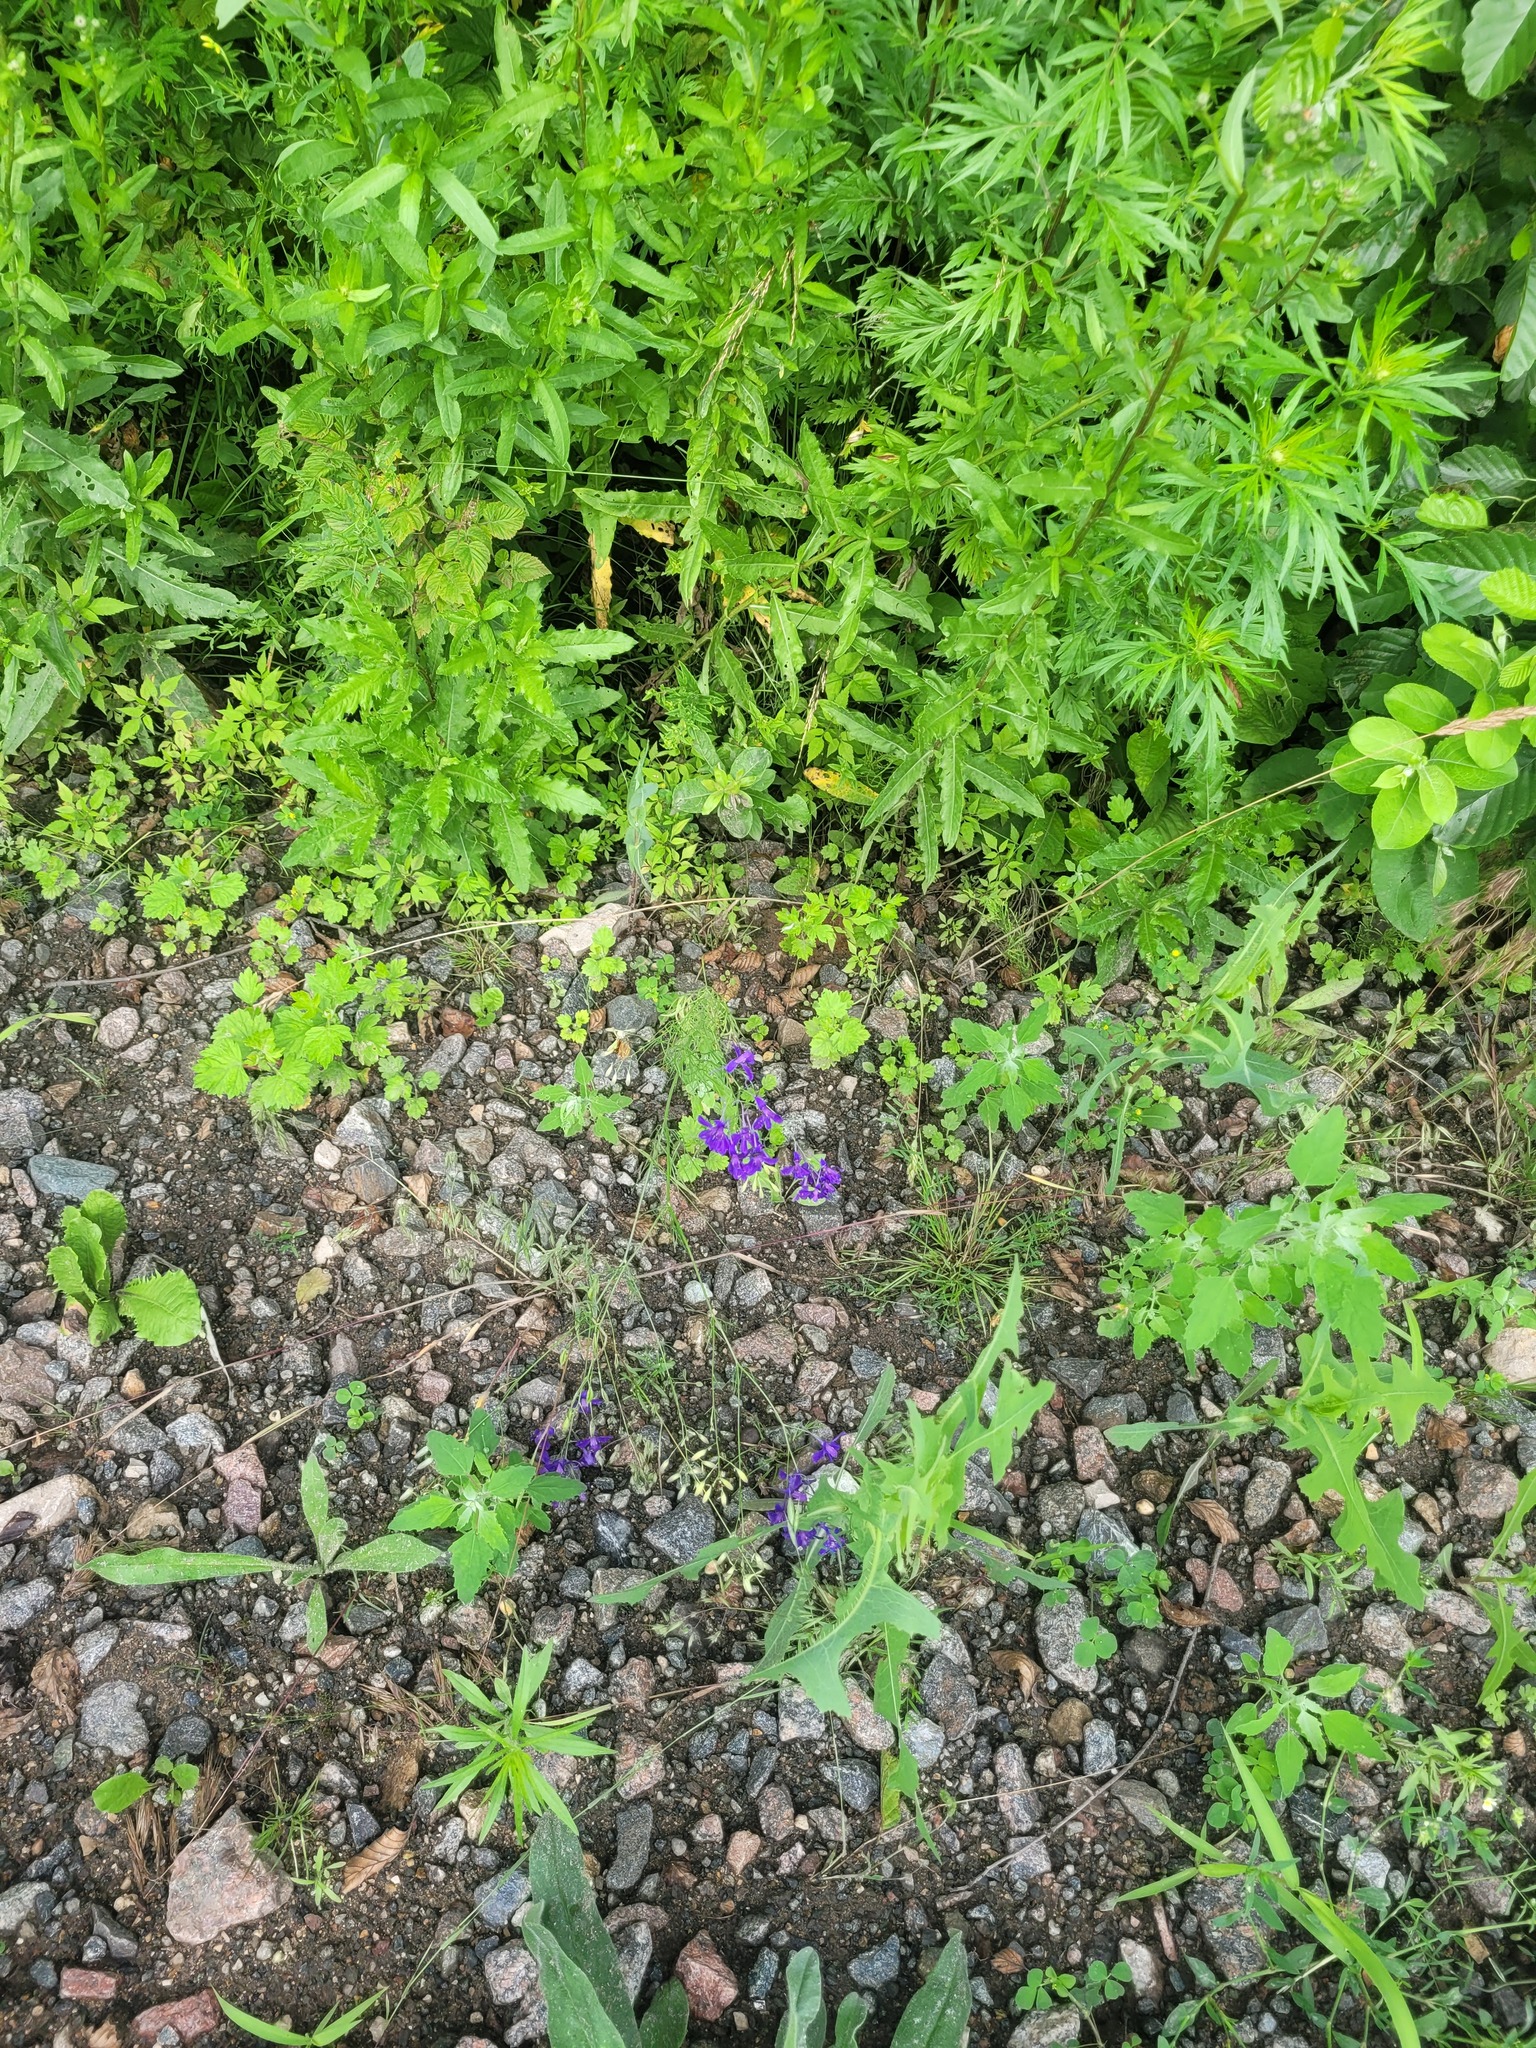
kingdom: Plantae
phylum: Tracheophyta
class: Magnoliopsida
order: Ranunculales
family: Ranunculaceae
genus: Delphinium
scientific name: Delphinium consolida
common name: Branching larkspur
